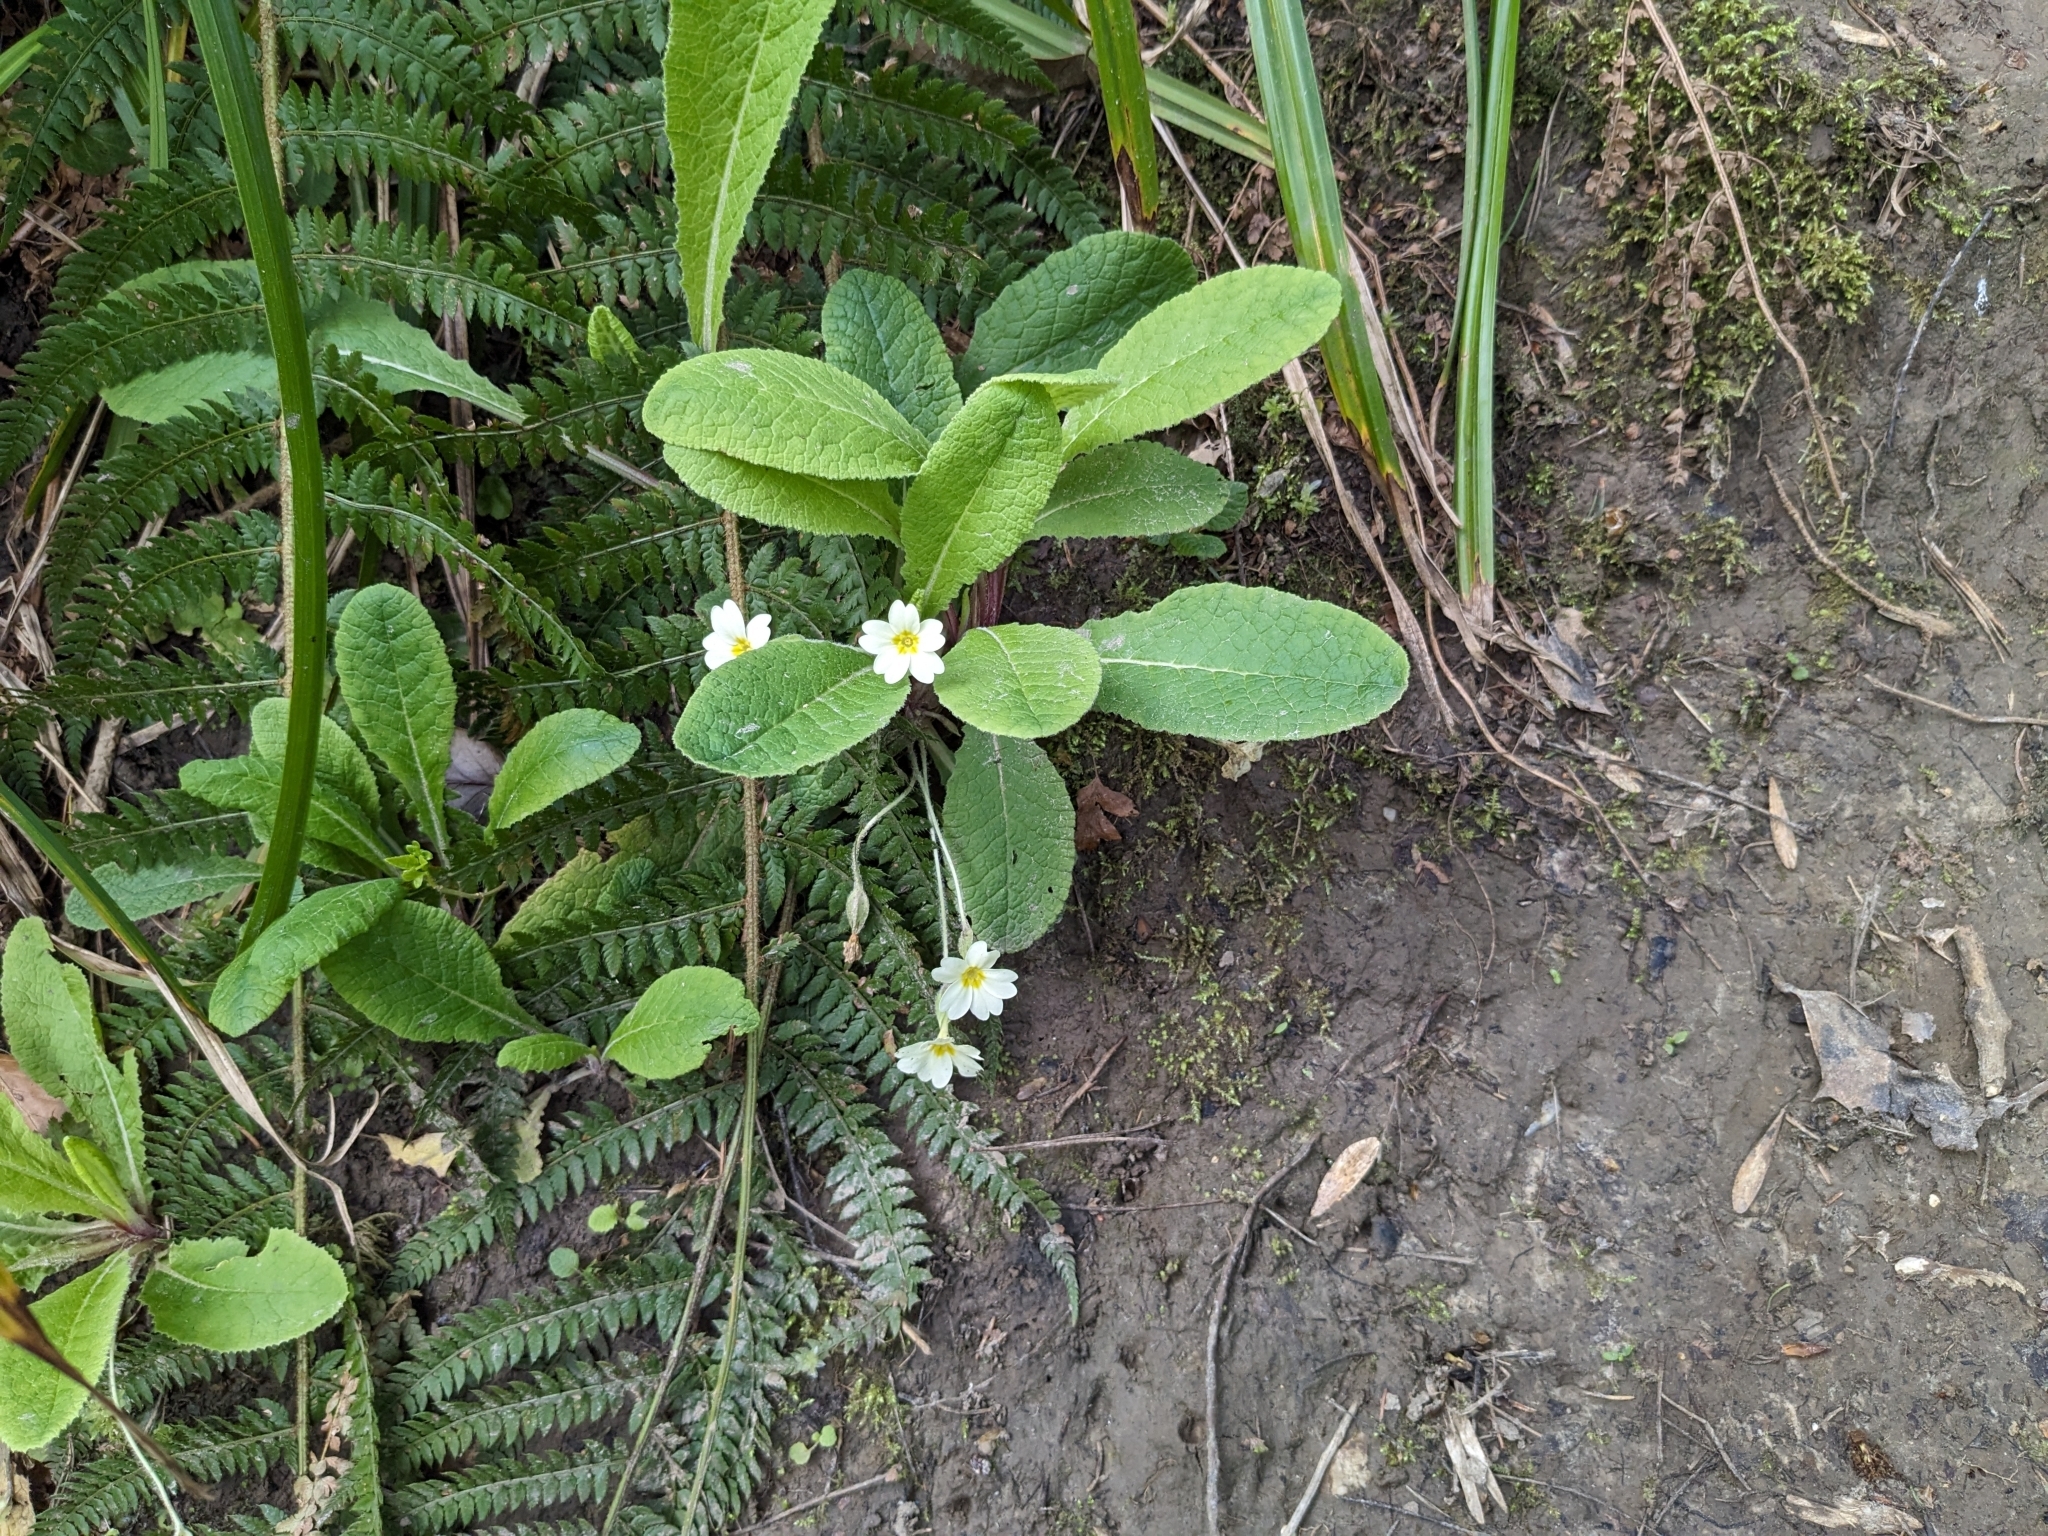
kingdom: Plantae
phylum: Tracheophyta
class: Magnoliopsida
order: Ericales
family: Primulaceae
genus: Primula
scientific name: Primula vulgaris
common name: Primrose
